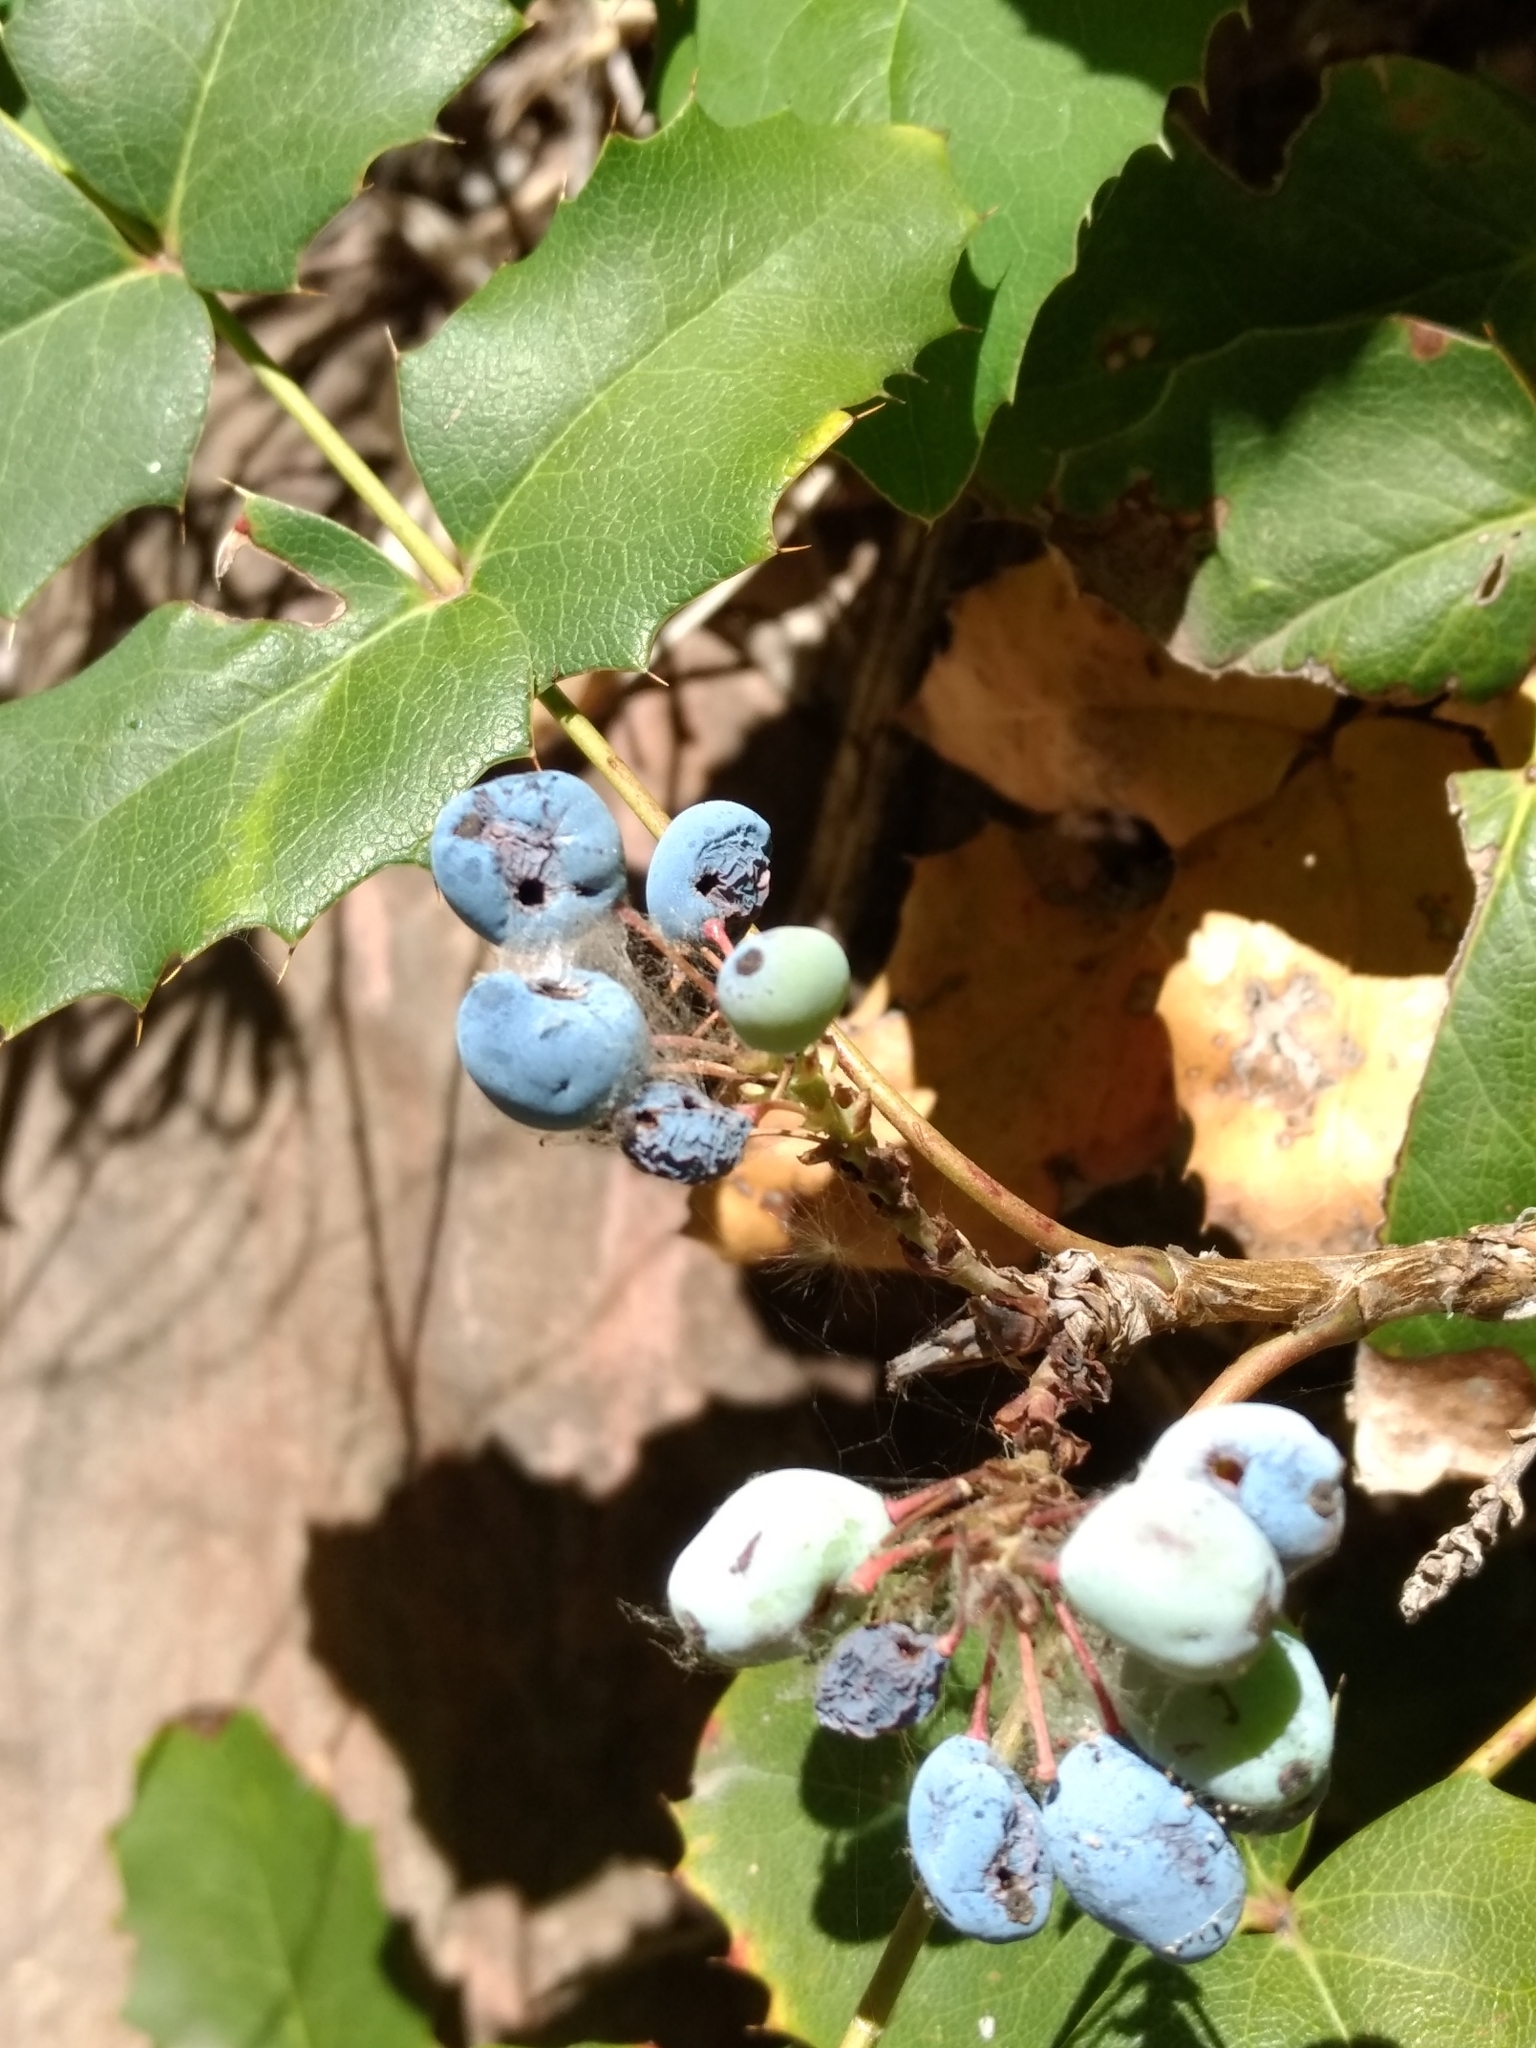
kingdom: Plantae
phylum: Tracheophyta
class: Magnoliopsida
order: Ranunculales
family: Berberidaceae
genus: Mahonia
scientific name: Mahonia repens
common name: Creeping oregon-grape
